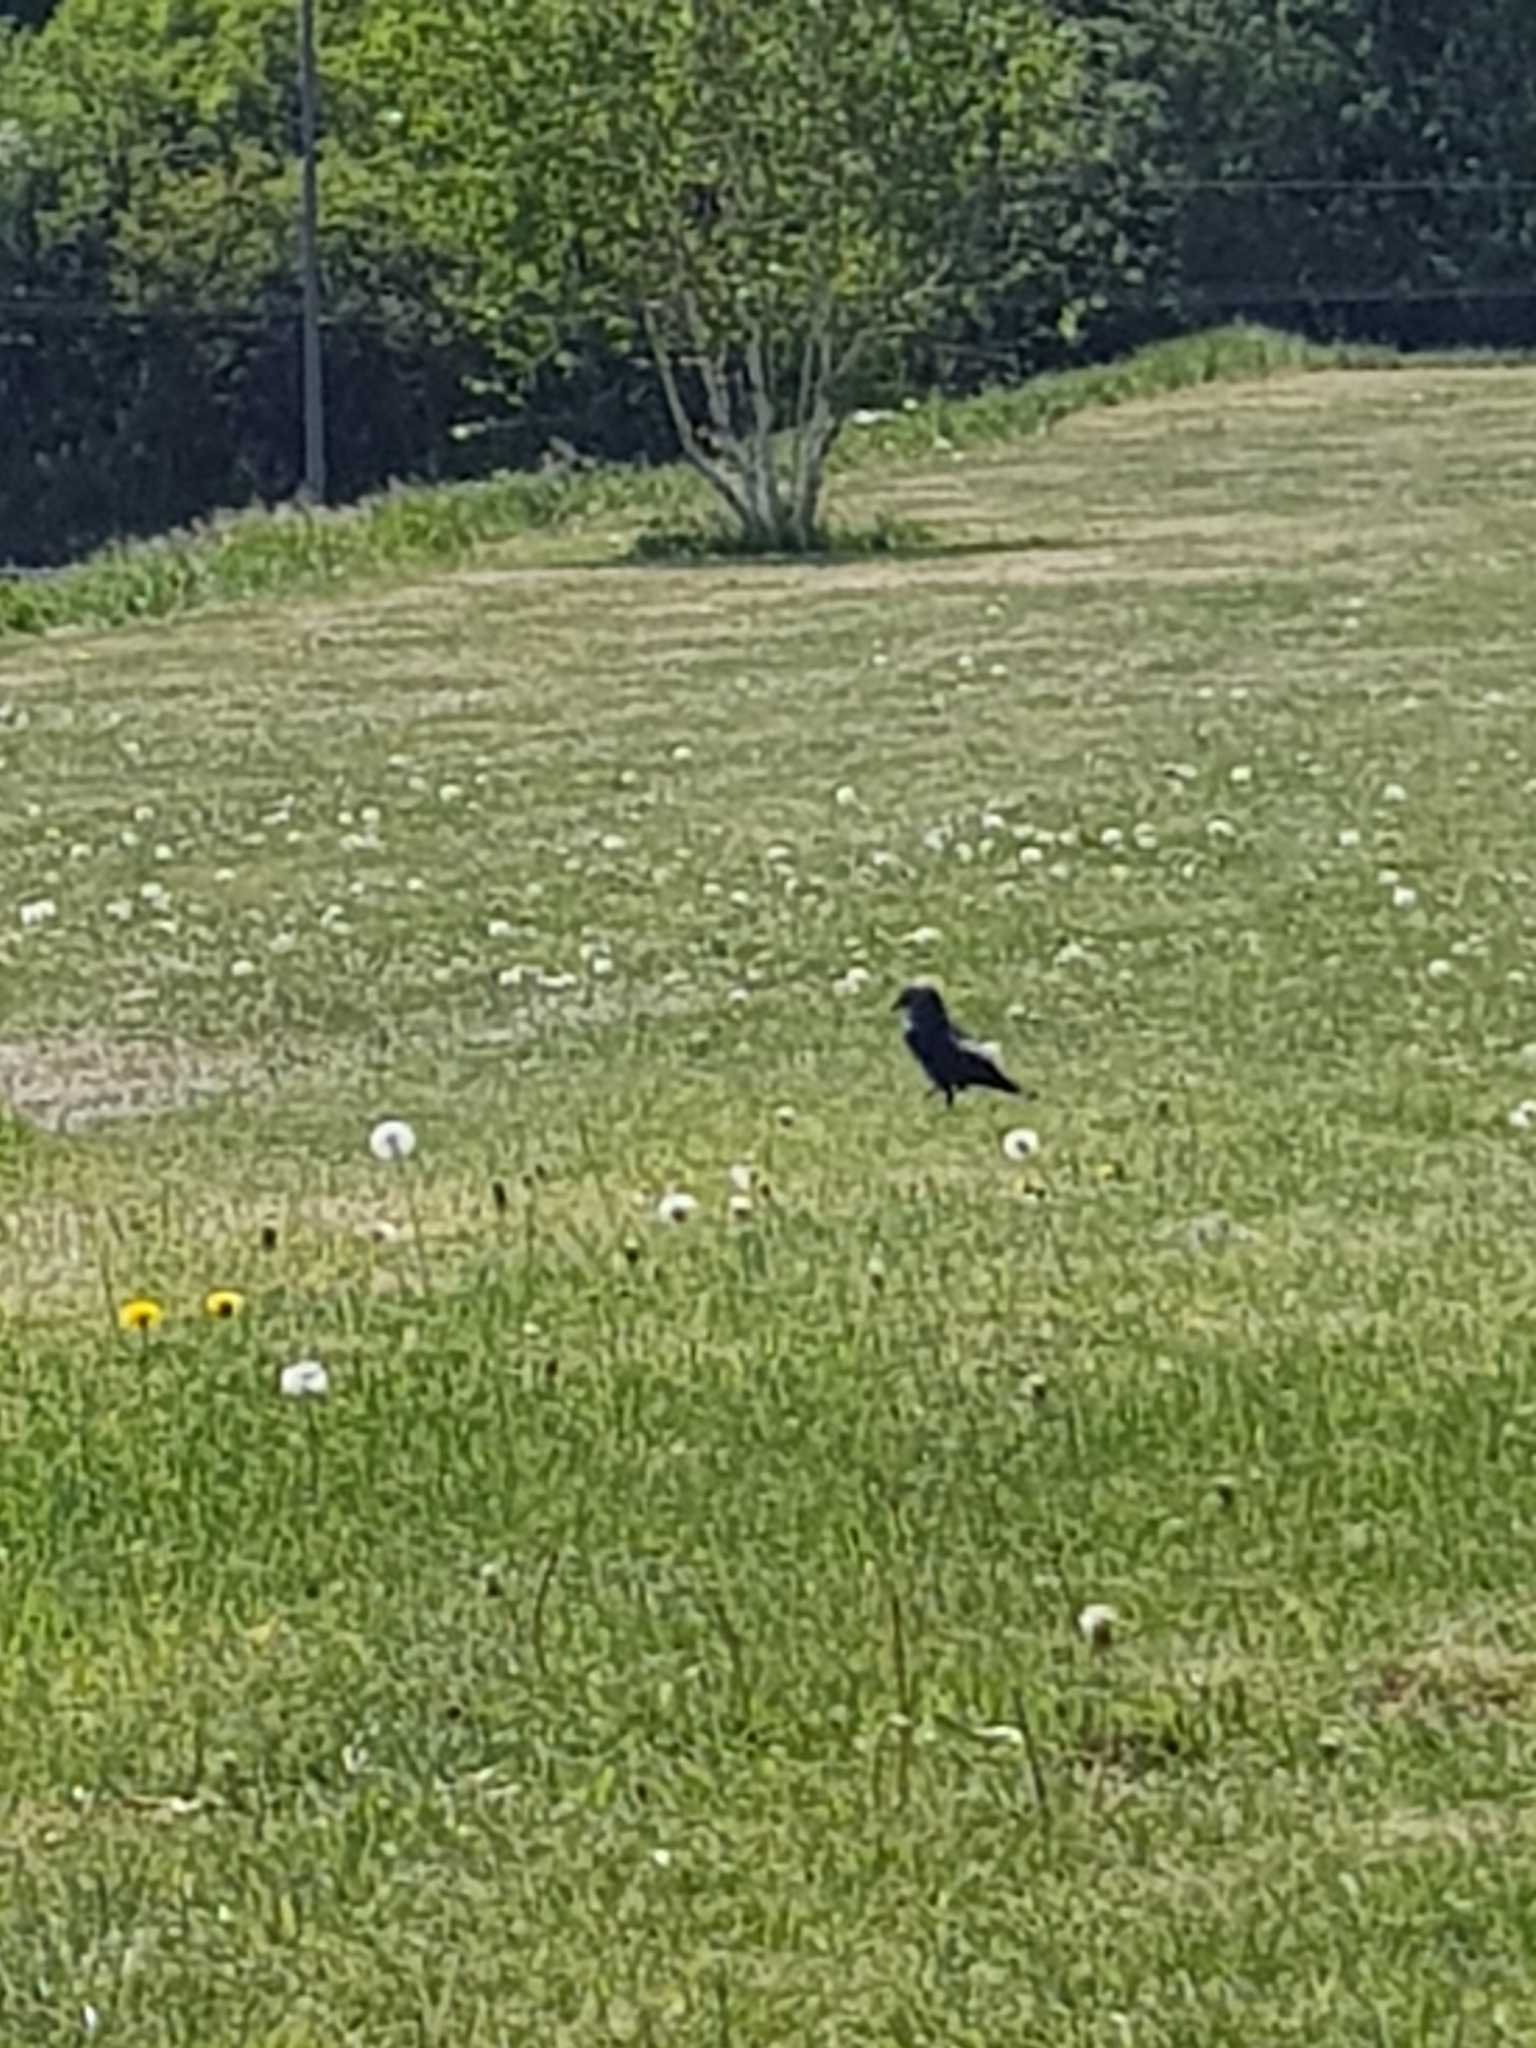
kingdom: Animalia
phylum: Chordata
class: Aves
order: Passeriformes
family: Corvidae
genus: Coloeus
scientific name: Coloeus monedula
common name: Western jackdaw
